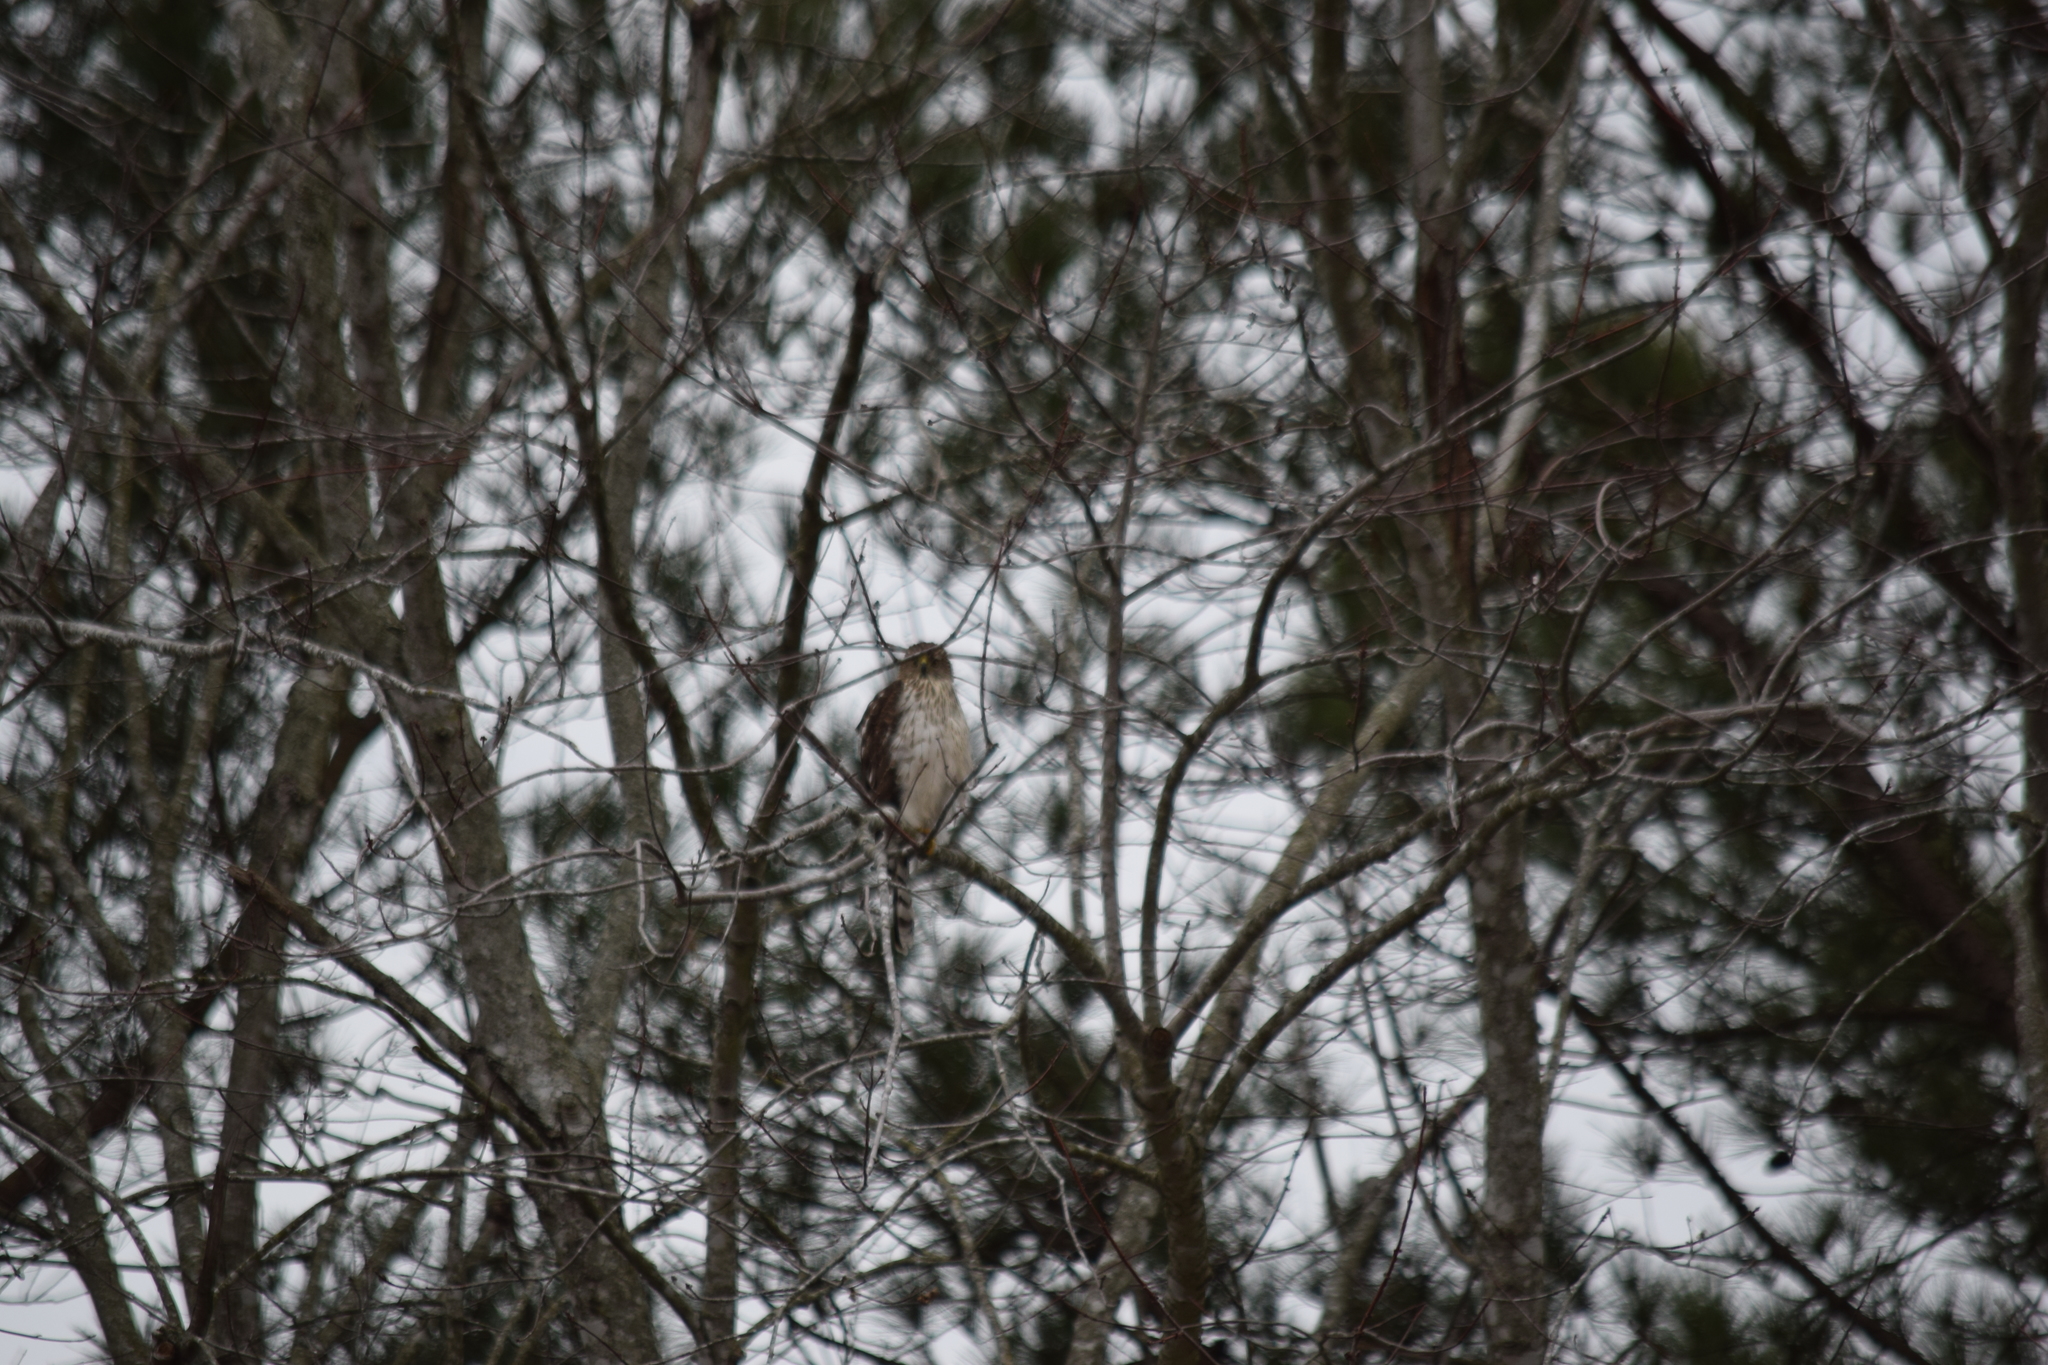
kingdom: Animalia
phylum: Chordata
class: Aves
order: Accipitriformes
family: Accipitridae
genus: Accipiter
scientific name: Accipiter cooperii
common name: Cooper's hawk
